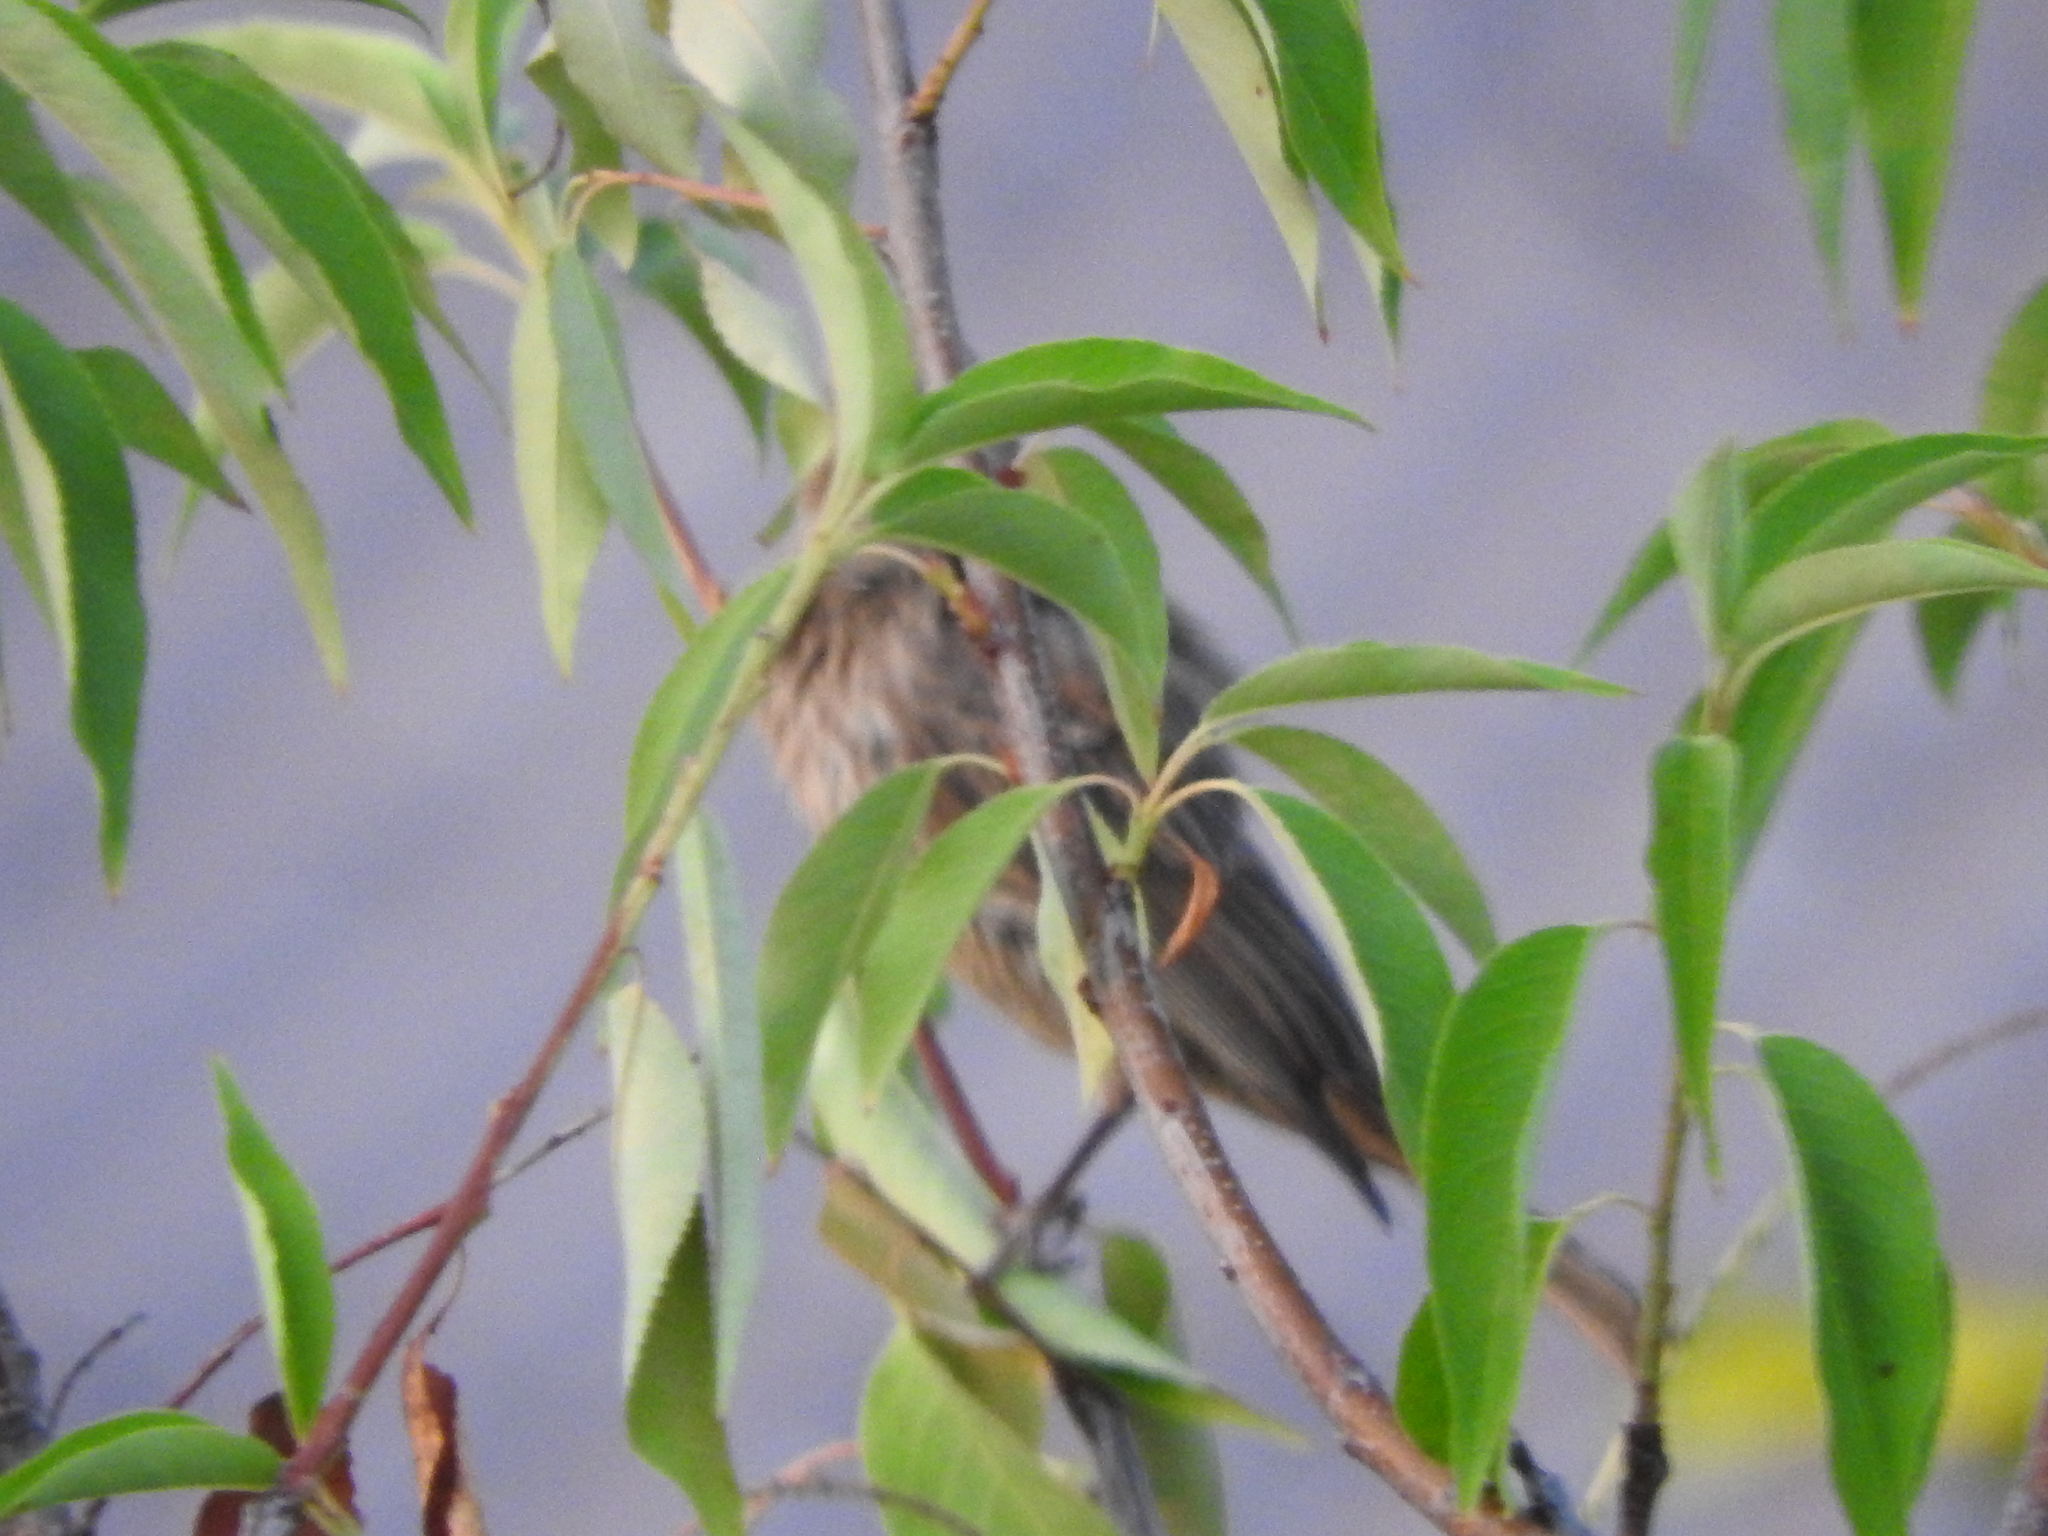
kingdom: Animalia
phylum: Chordata
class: Aves
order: Passeriformes
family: Fringillidae
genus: Haemorhous
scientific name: Haemorhous mexicanus
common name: House finch
